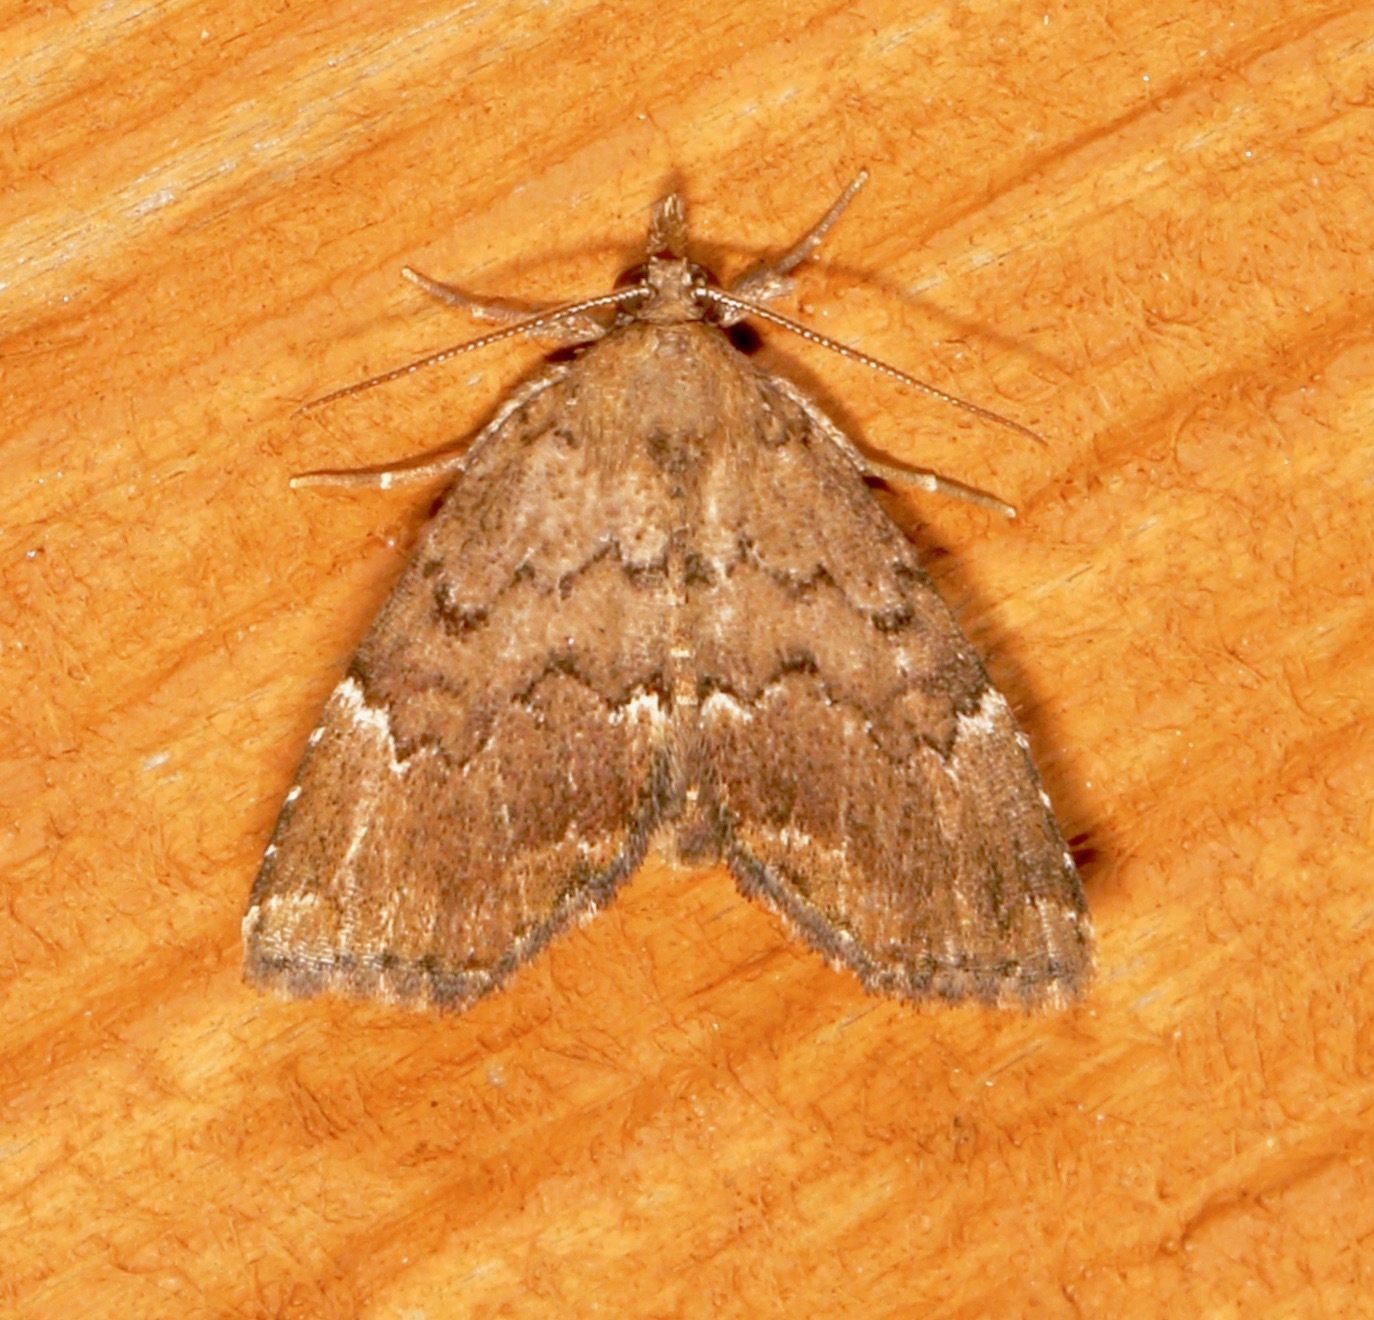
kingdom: Animalia
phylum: Arthropoda
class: Insecta
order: Lepidoptera
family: Erebidae
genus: Cutina
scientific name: Cutina aluticolor
